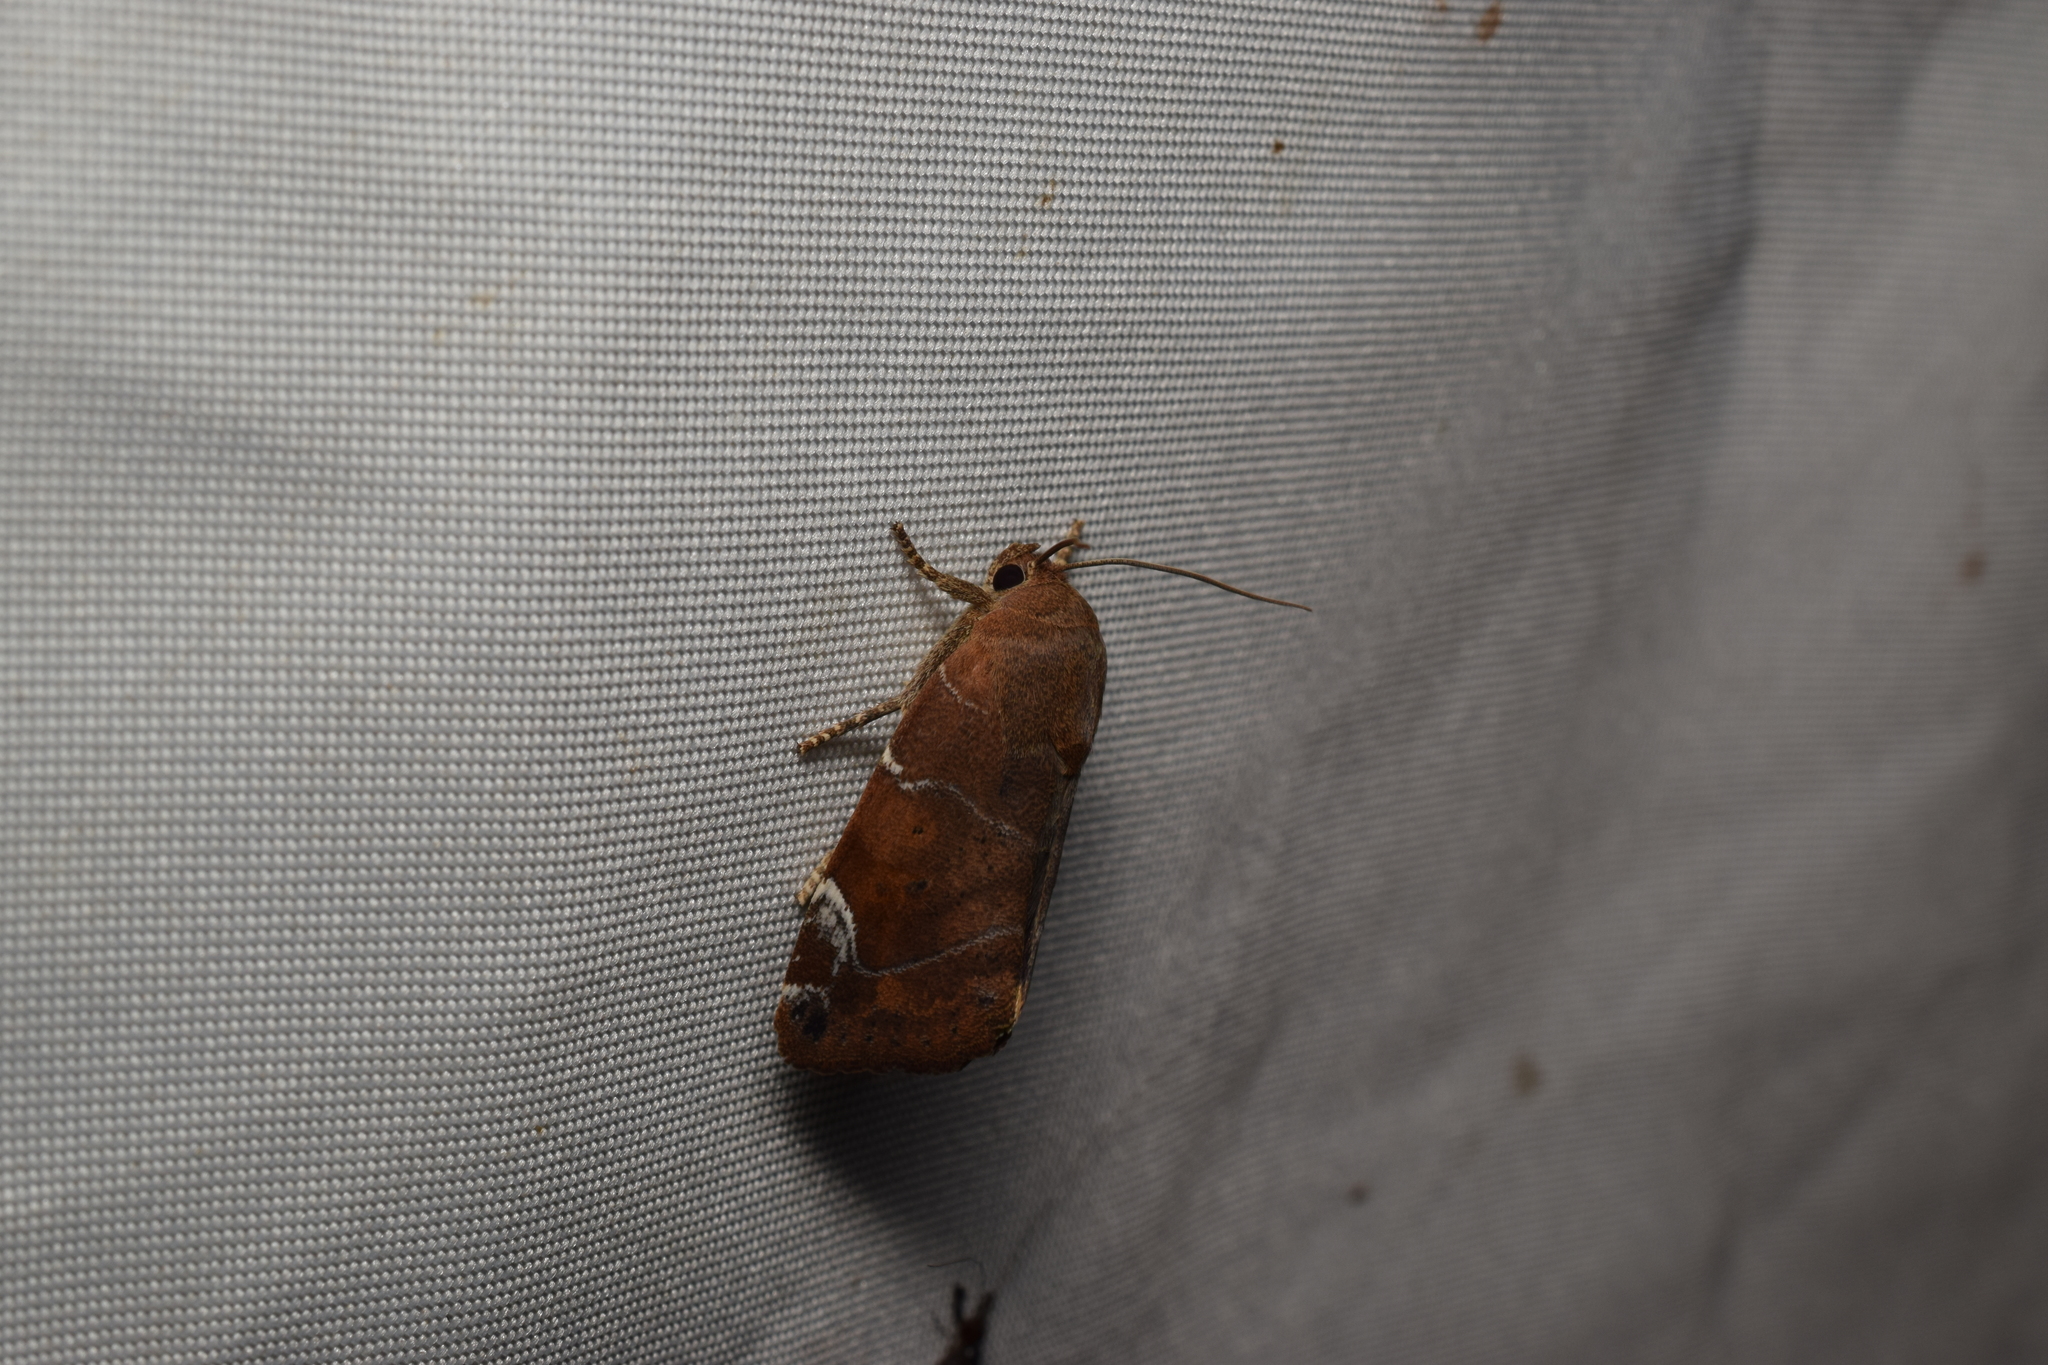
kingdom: Animalia
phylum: Arthropoda
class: Insecta
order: Lepidoptera
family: Noctuidae
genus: Cosmia
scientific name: Cosmia affinis
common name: Lesser-spotted pinion
